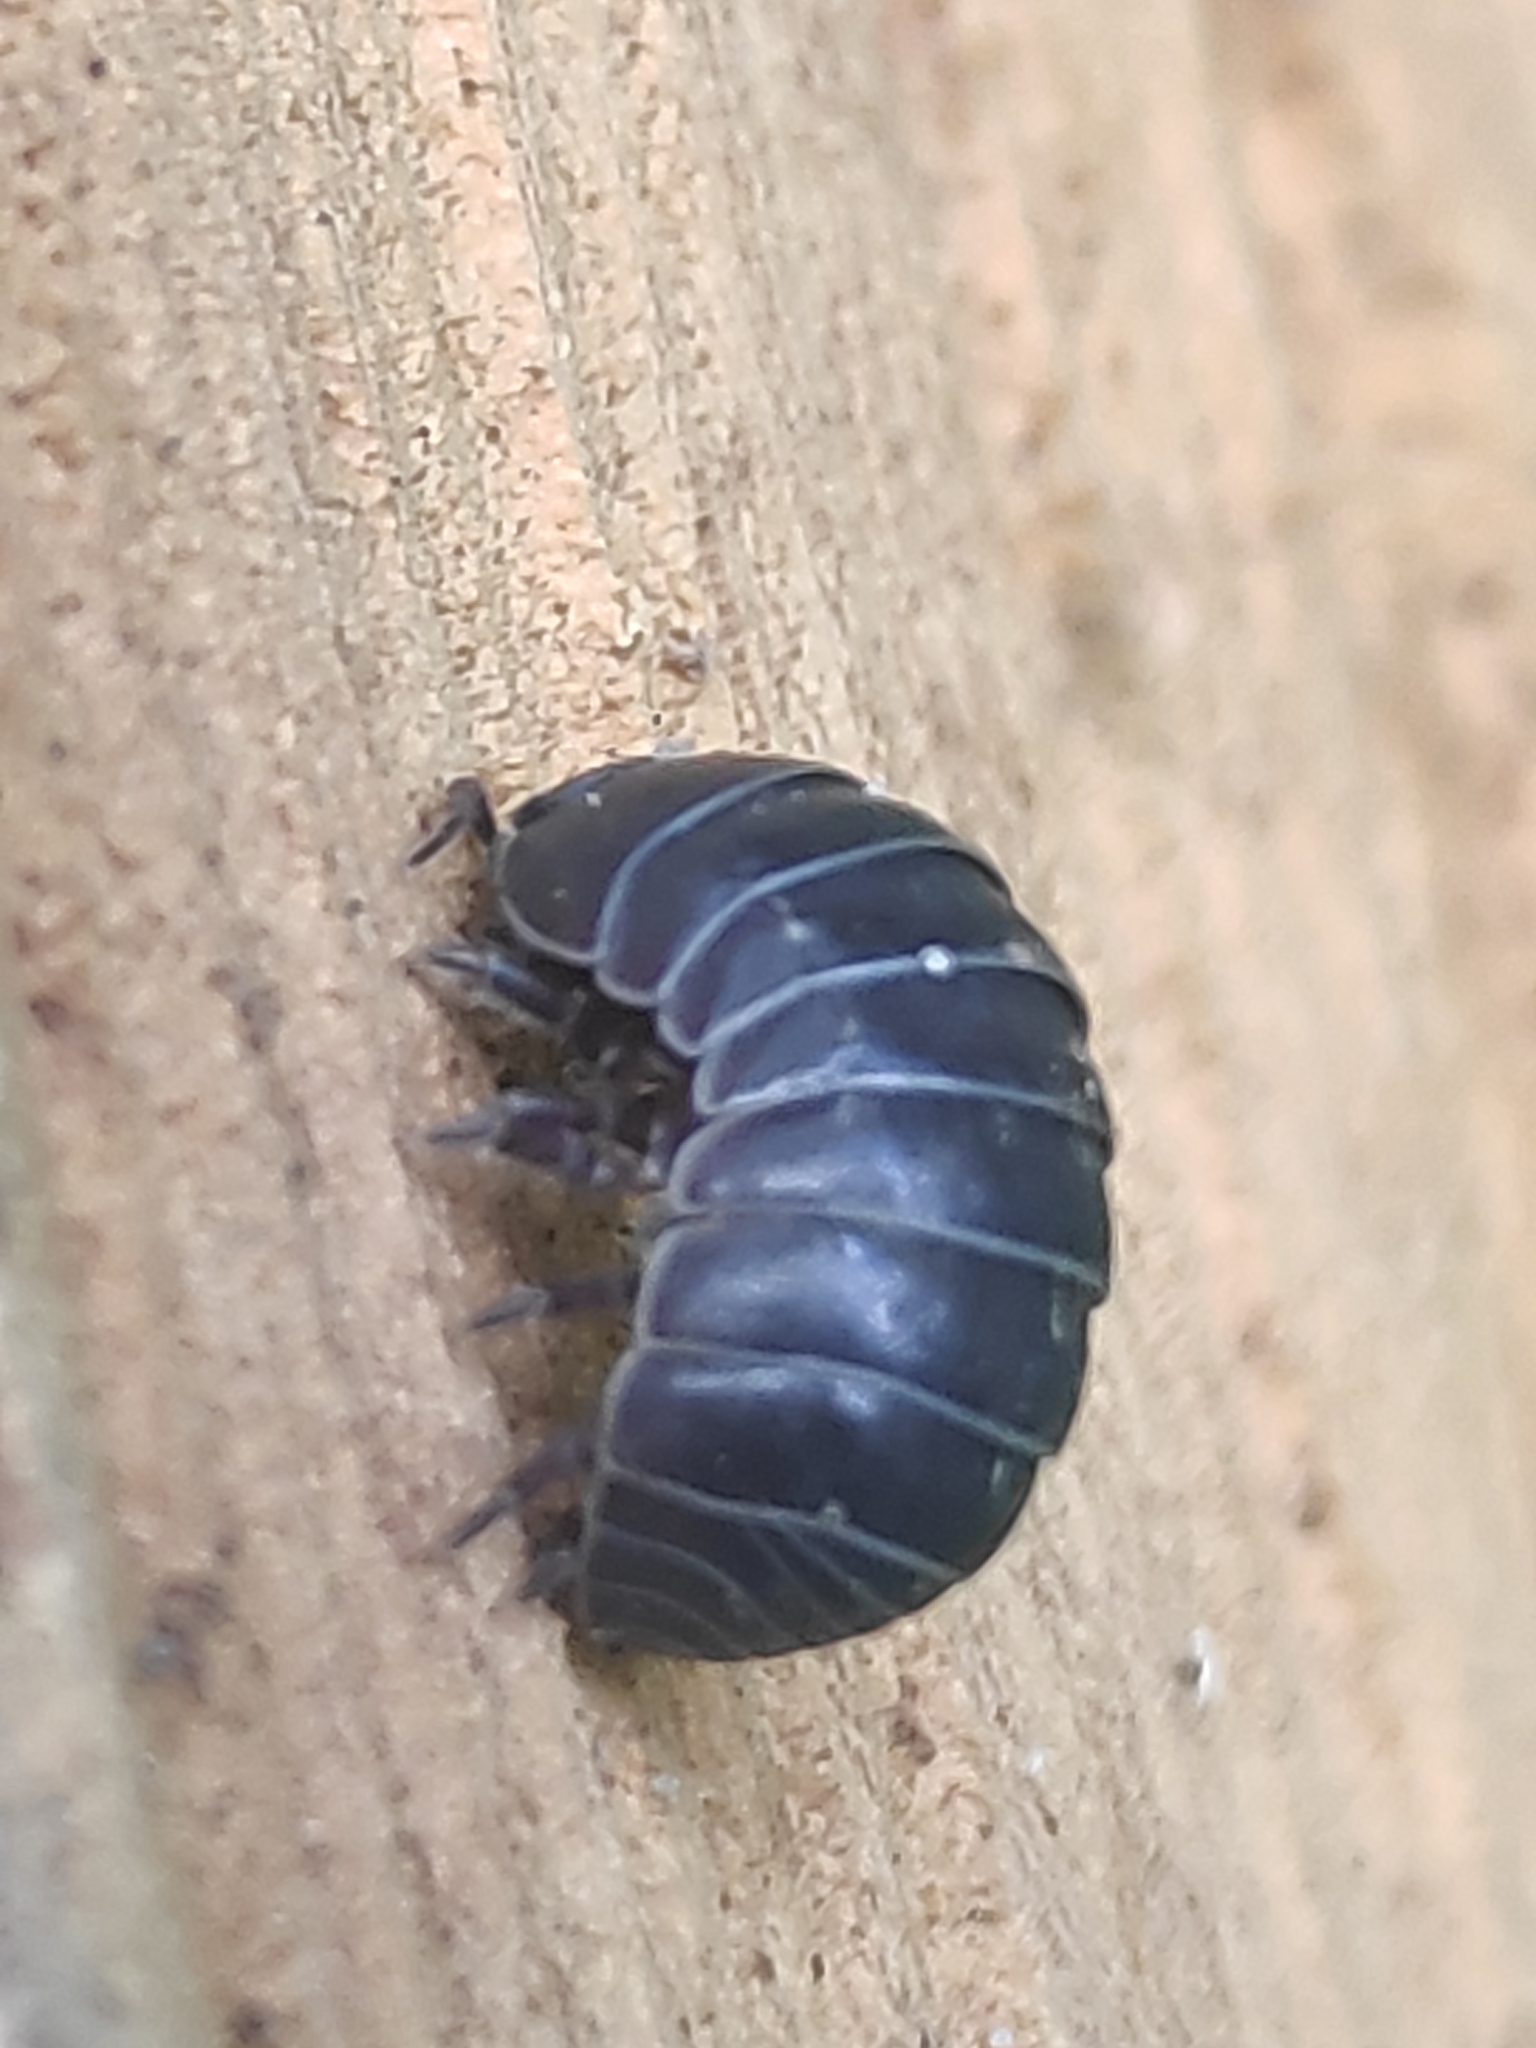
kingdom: Animalia
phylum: Arthropoda
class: Malacostraca
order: Isopoda
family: Armadillidiidae
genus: Armadillidium
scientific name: Armadillidium vulgare
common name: Common pill woodlouse
